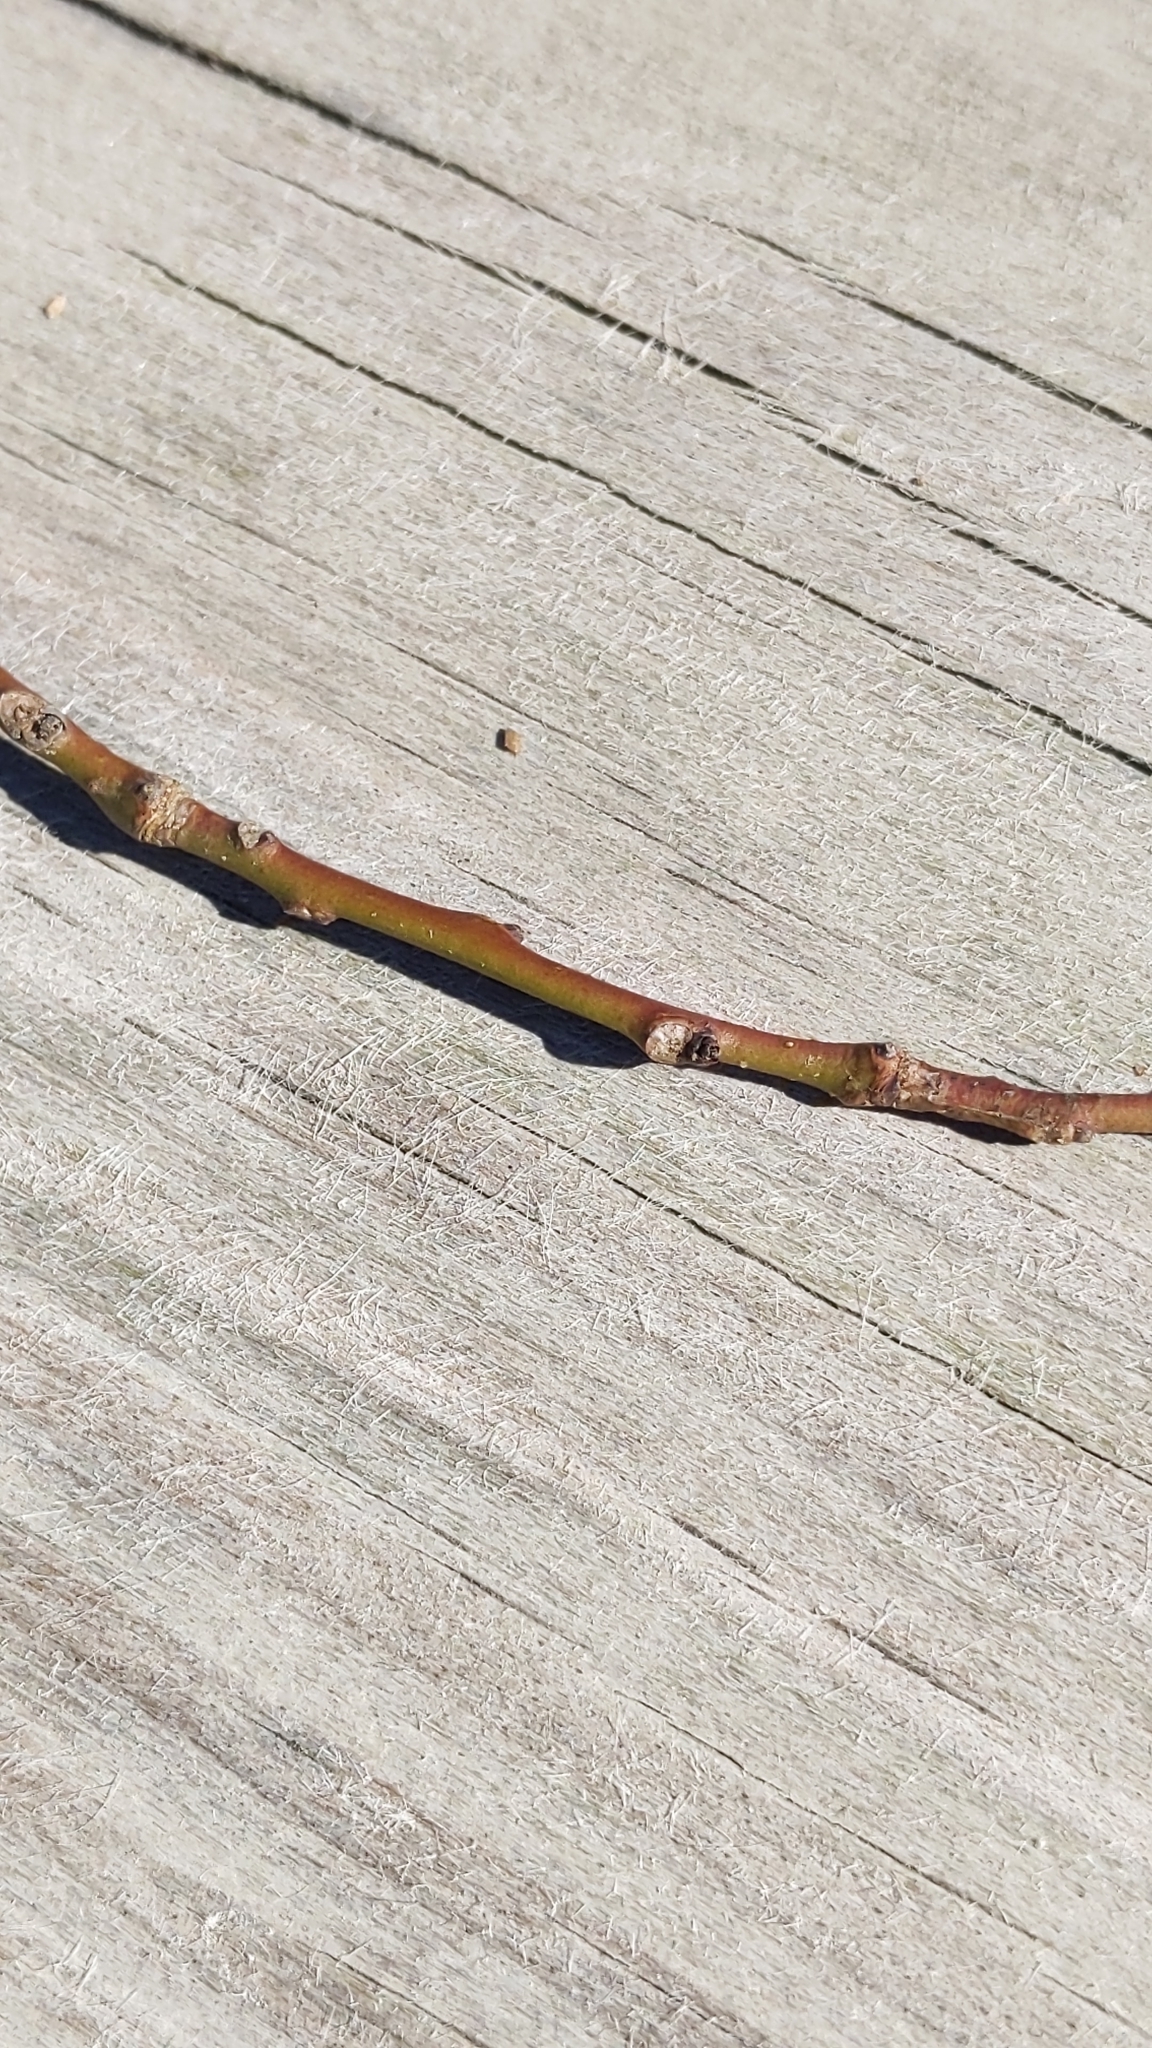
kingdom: Plantae
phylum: Tracheophyta
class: Magnoliopsida
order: Ericales
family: Ericaceae
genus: Oxydendrum
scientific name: Oxydendrum arboreum
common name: Sourwood
